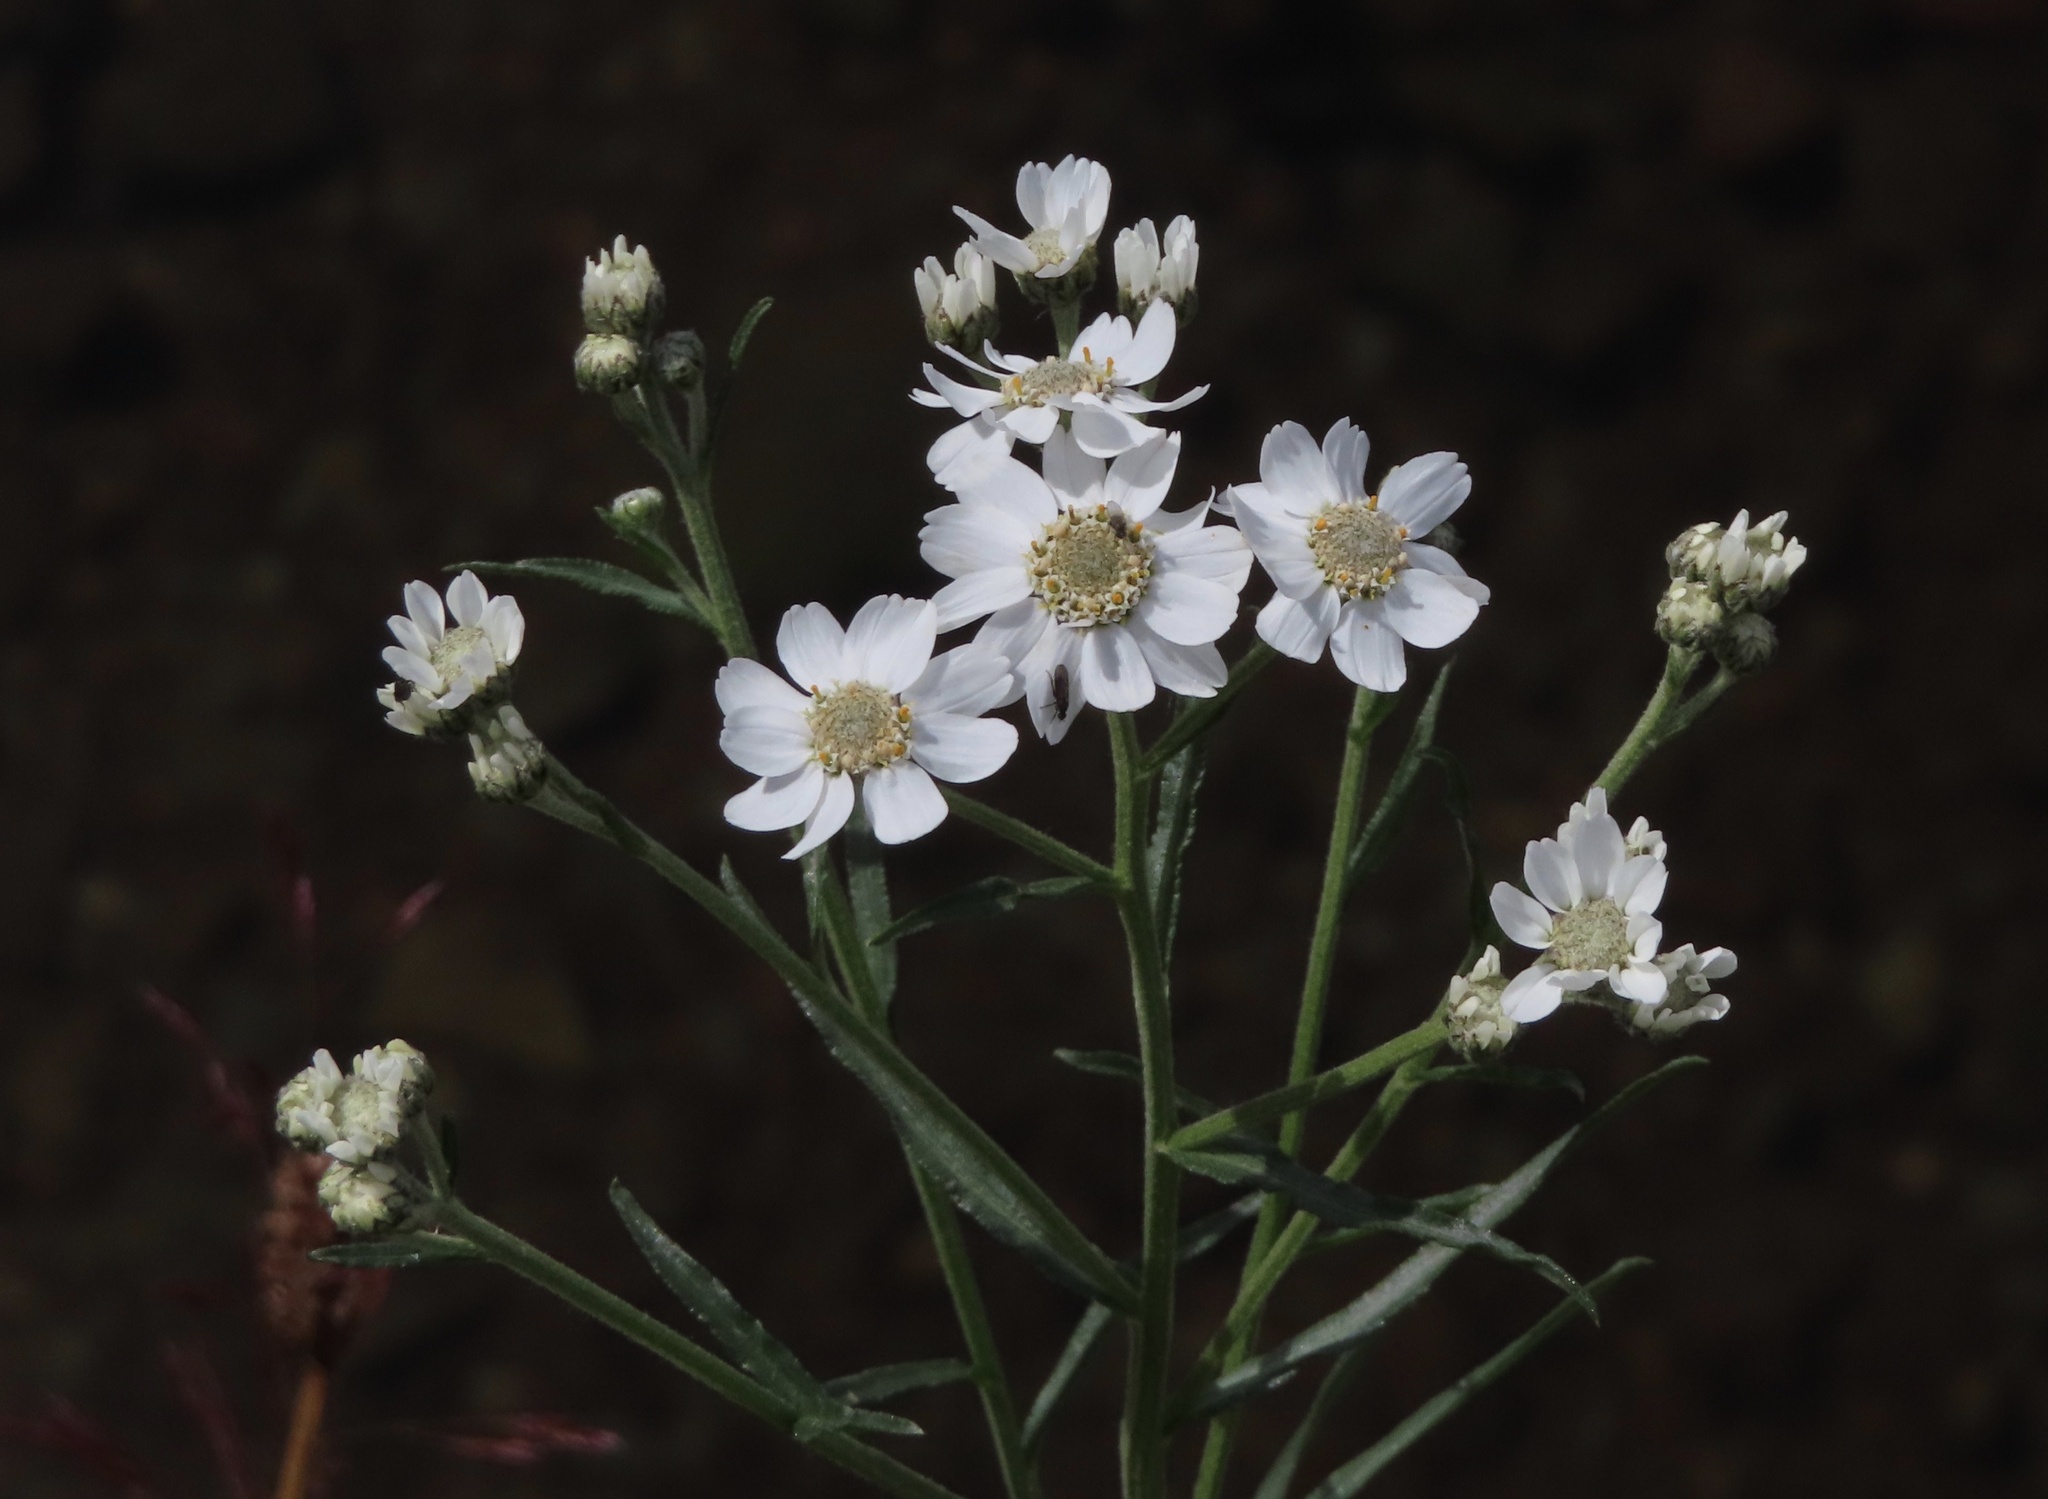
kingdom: Plantae
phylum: Tracheophyta
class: Magnoliopsida
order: Asterales
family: Asteraceae
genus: Achillea
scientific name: Achillea ptarmica
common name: Sneezeweed
